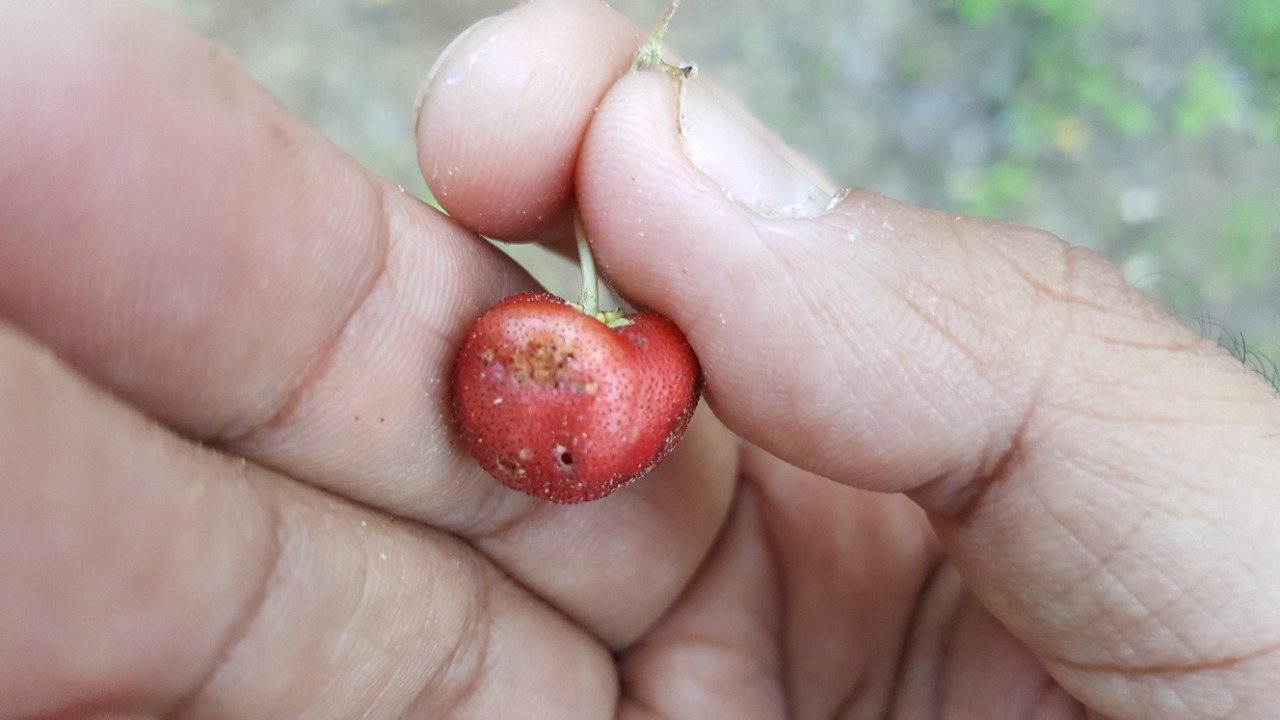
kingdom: Plantae
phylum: Tracheophyta
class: Magnoliopsida
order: Malpighiales
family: Malpighiaceae
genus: Malpighia
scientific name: Malpighia diversifolia
